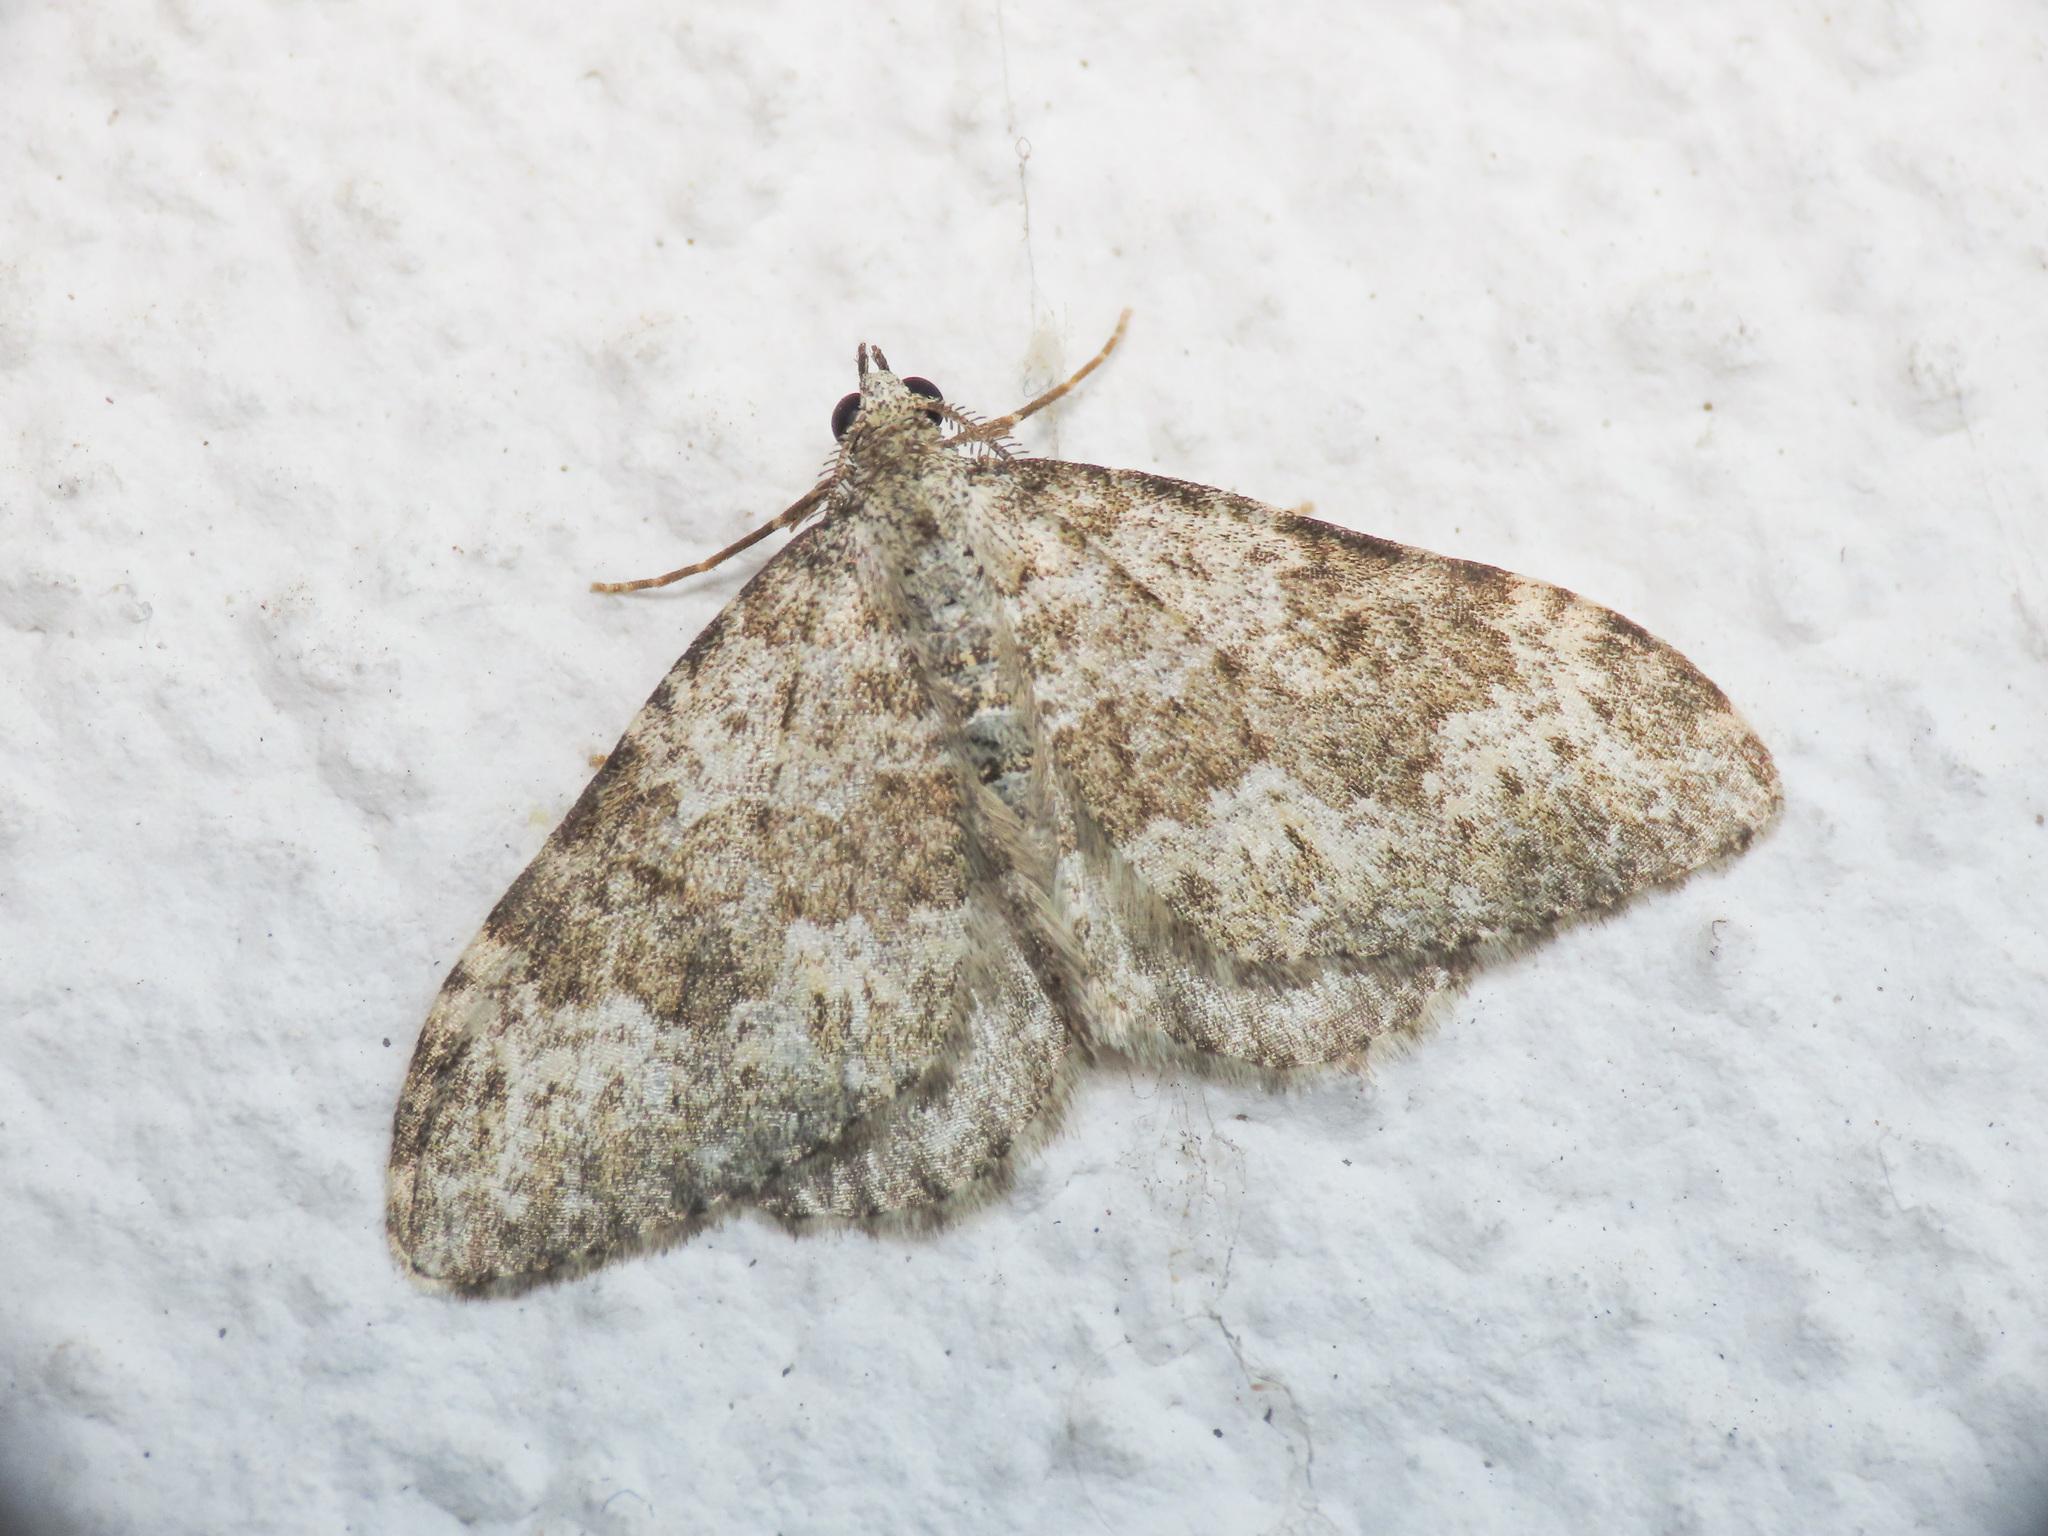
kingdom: Animalia
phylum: Arthropoda
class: Insecta
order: Lepidoptera
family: Geometridae
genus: Nebula
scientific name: Nebula salicata
